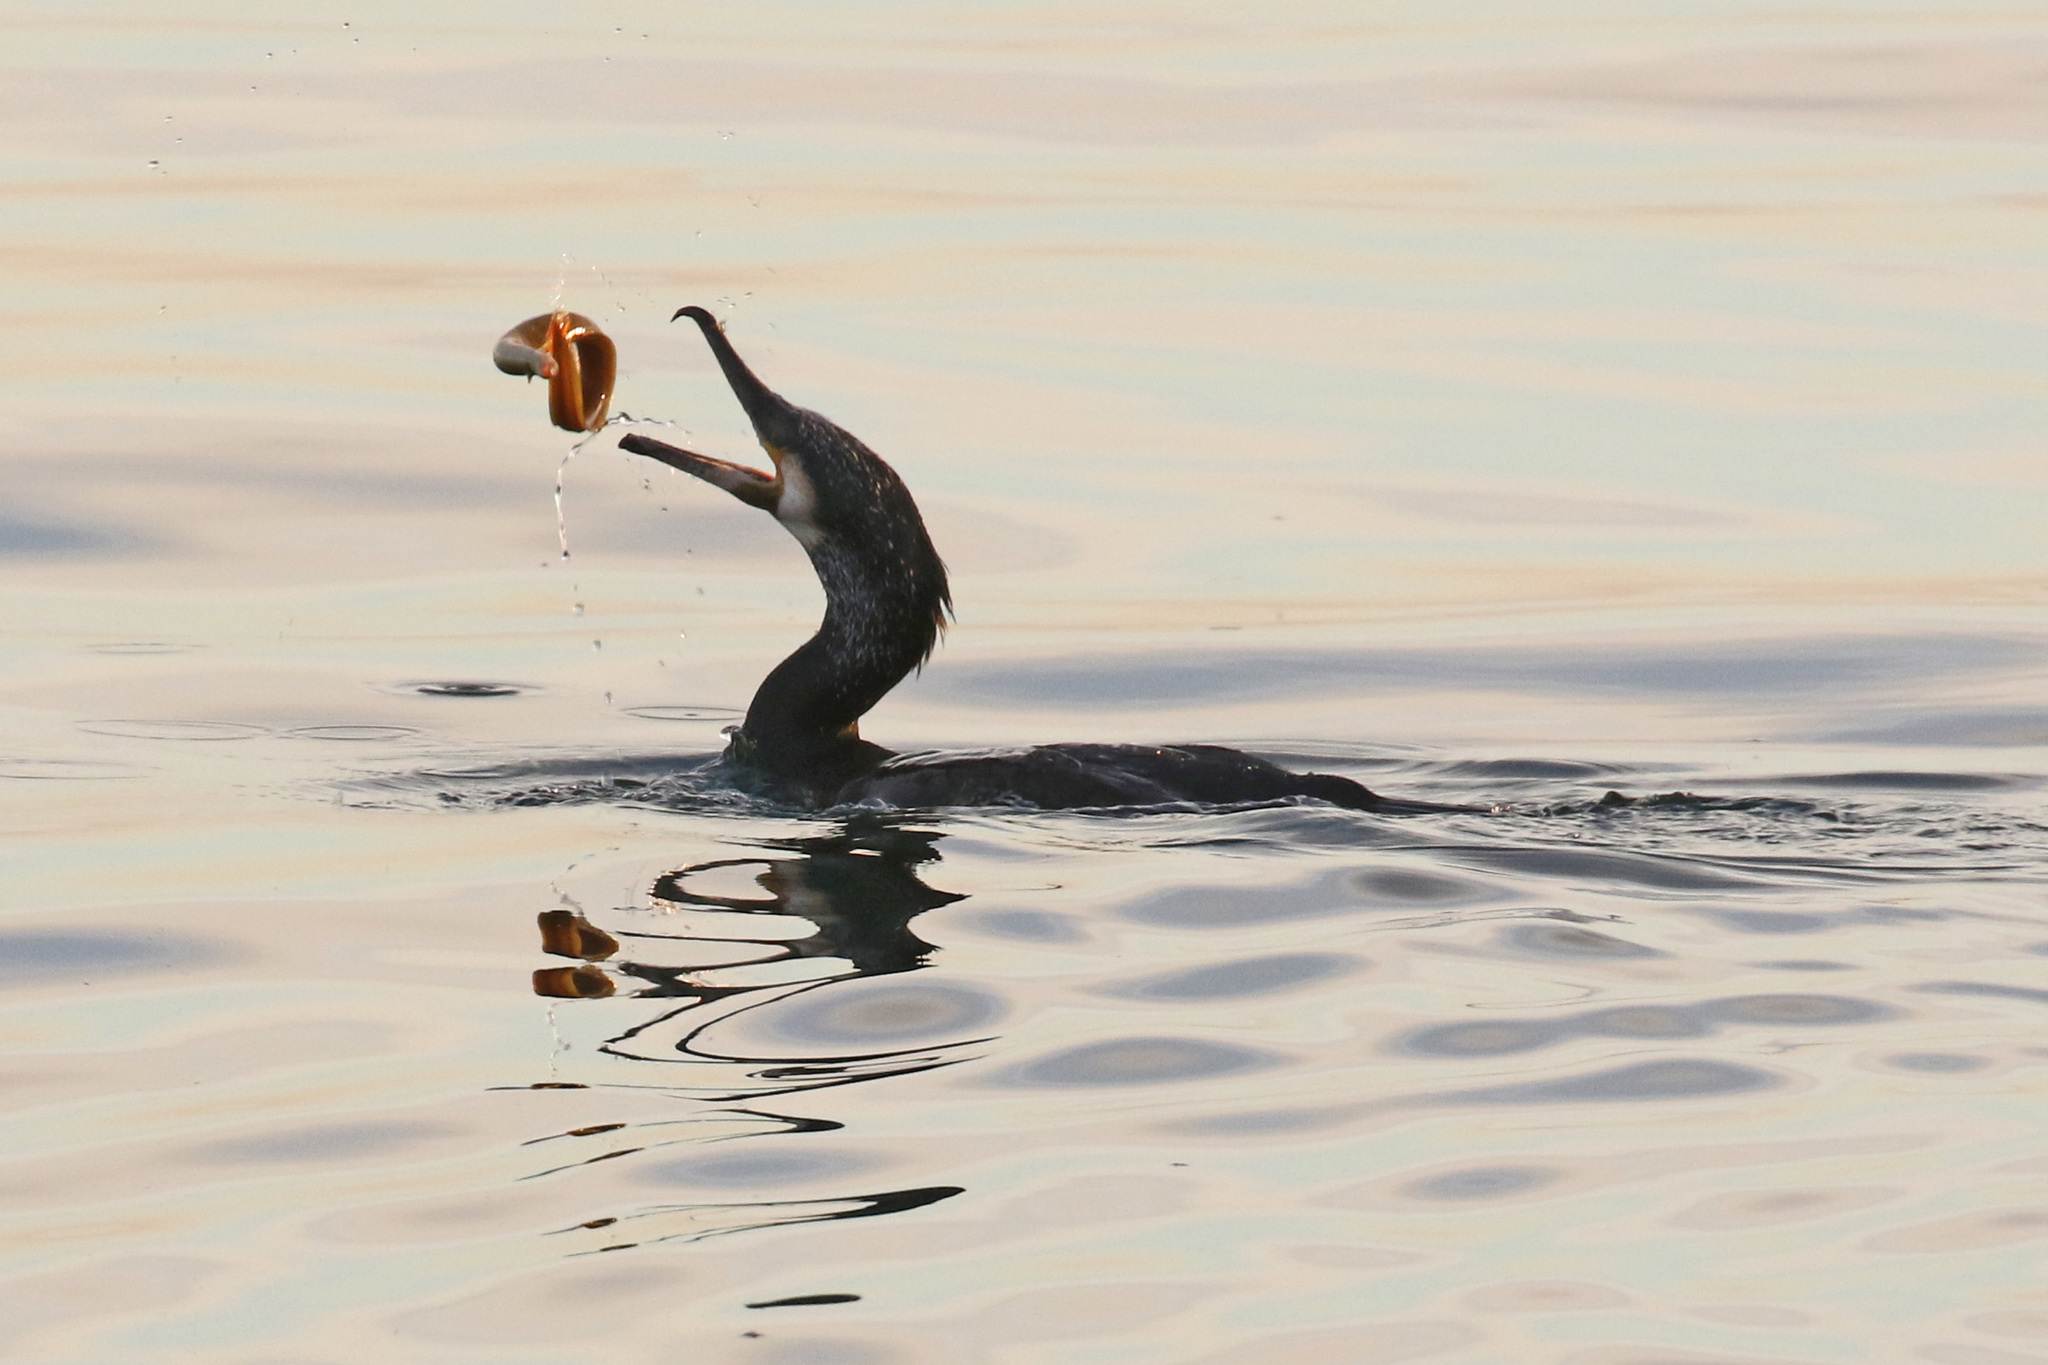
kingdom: Animalia
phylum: Chordata
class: Aves
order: Suliformes
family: Phalacrocoracidae
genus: Phalacrocorax
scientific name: Phalacrocorax carbo
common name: Great cormorant
